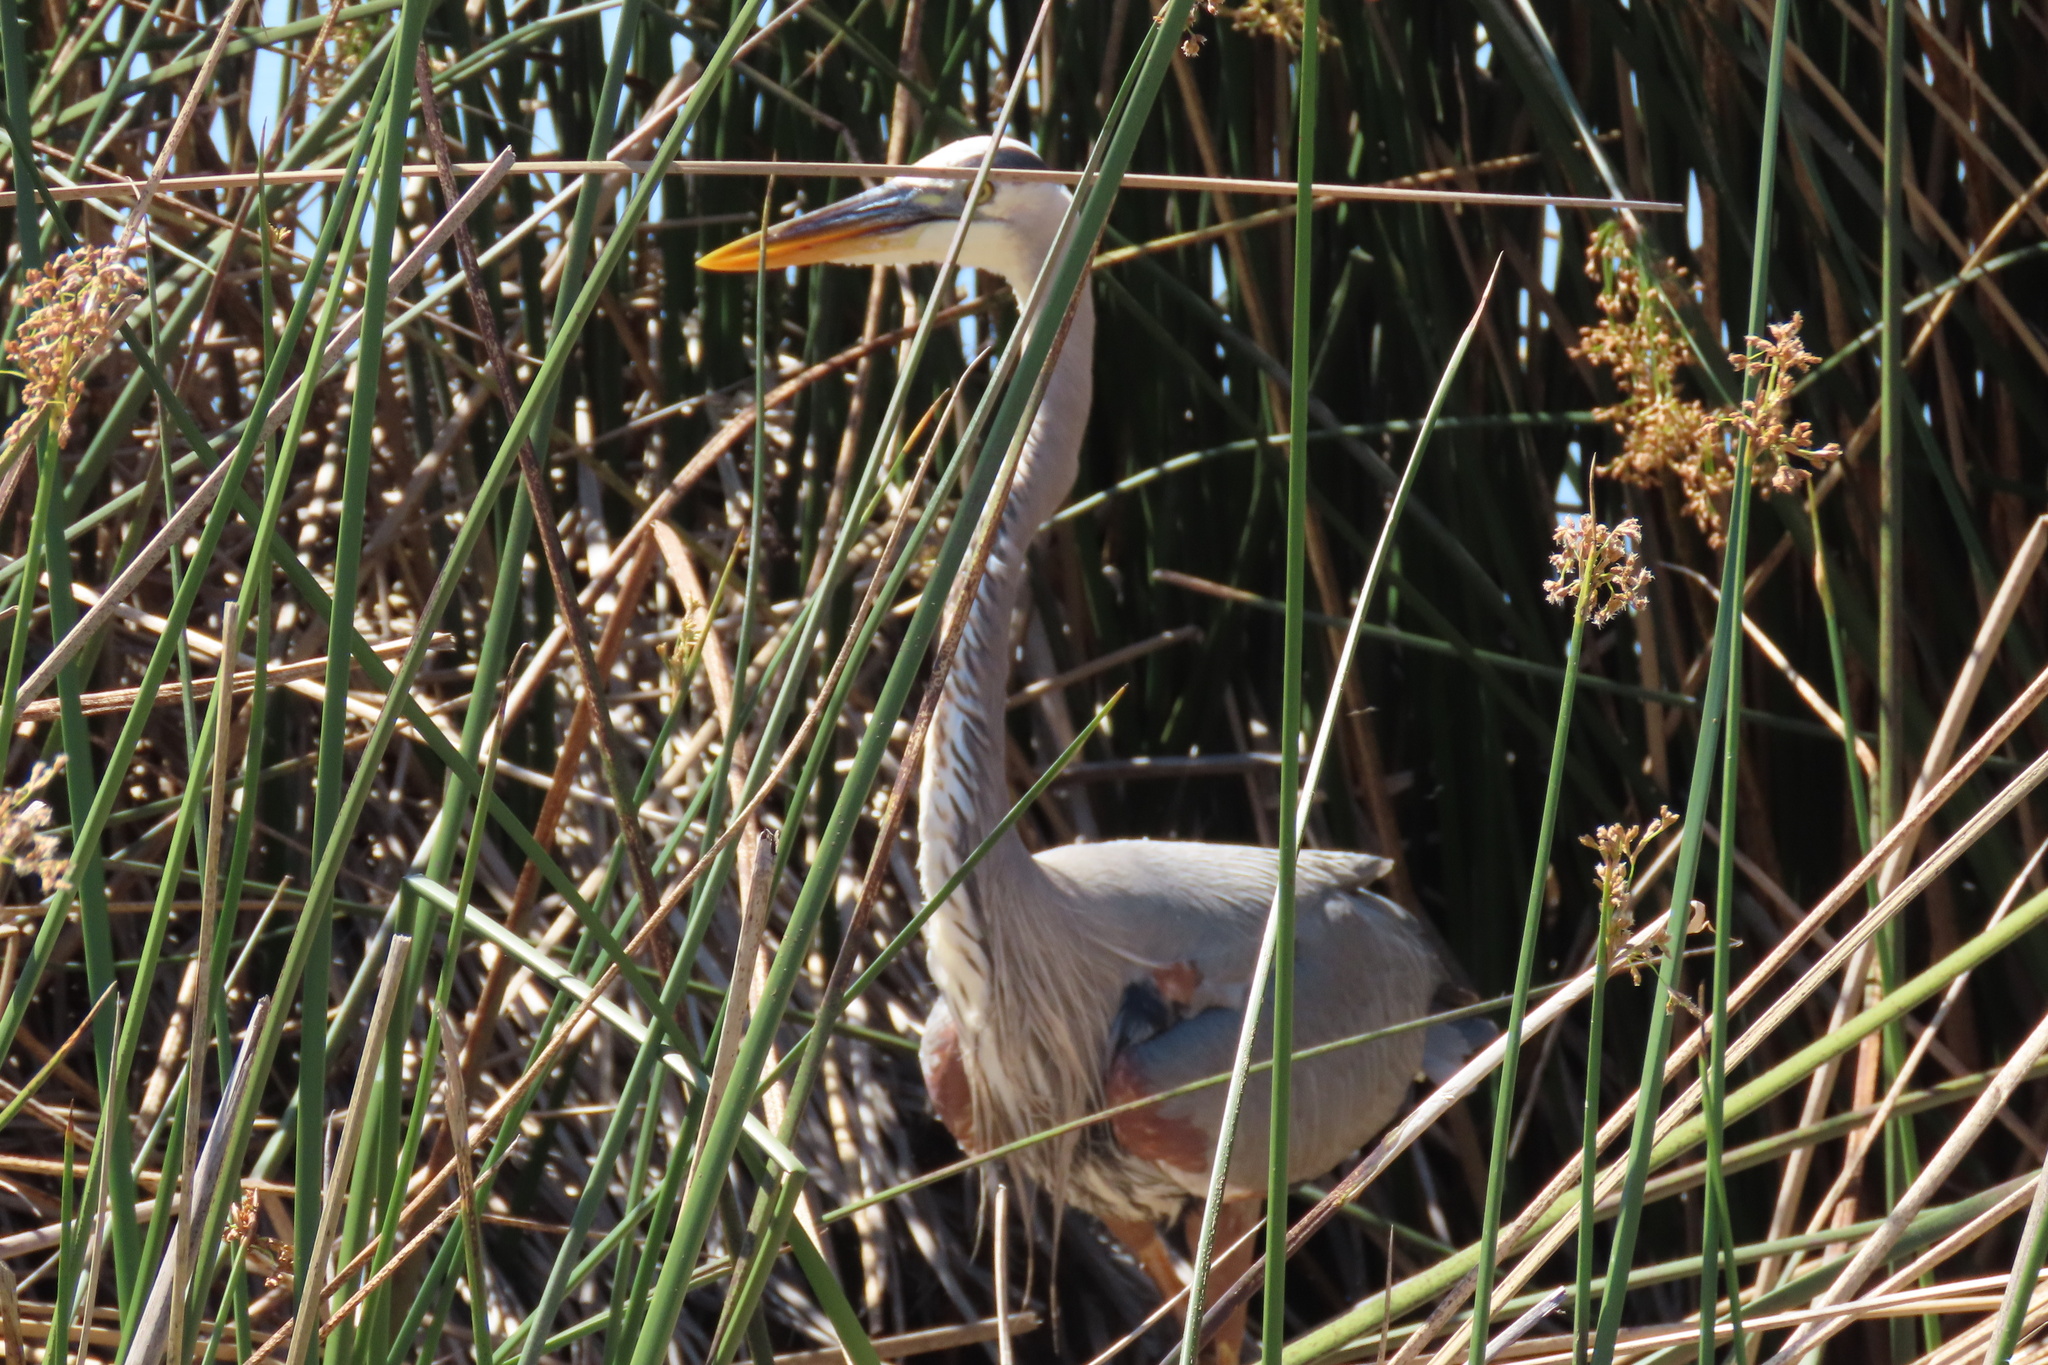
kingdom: Animalia
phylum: Chordata
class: Aves
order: Pelecaniformes
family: Ardeidae
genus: Ardea
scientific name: Ardea herodias
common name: Great blue heron
